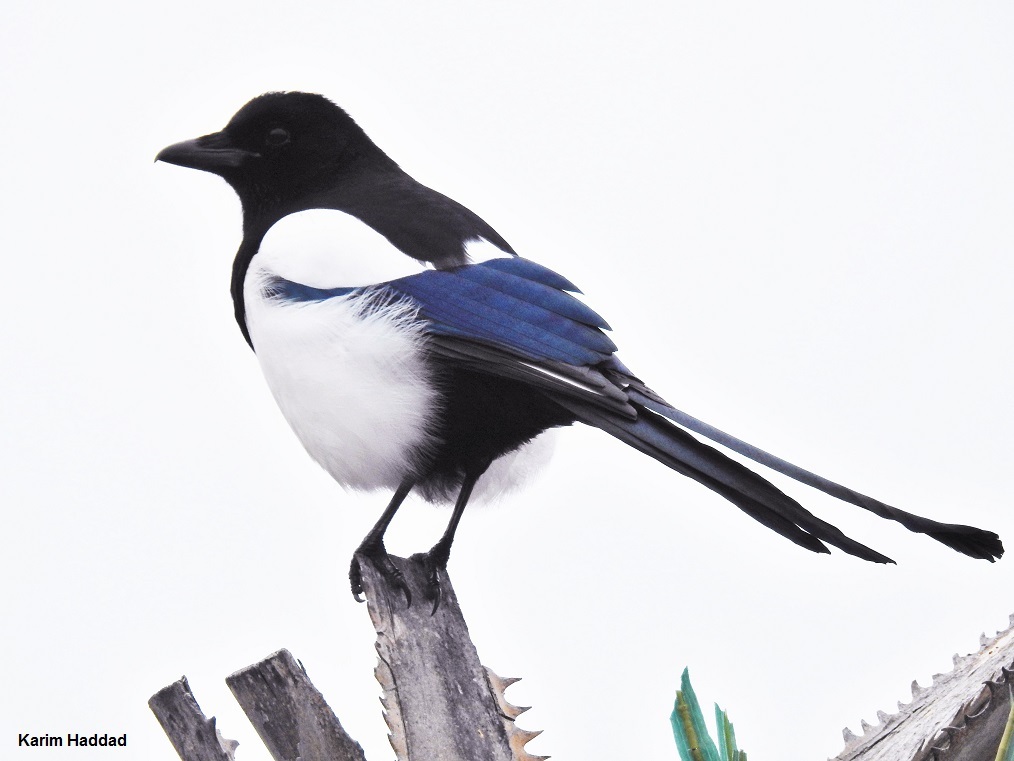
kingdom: Animalia
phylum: Chordata
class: Aves
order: Passeriformes
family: Corvidae
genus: Pica
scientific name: Pica pica
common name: Eurasian magpie
